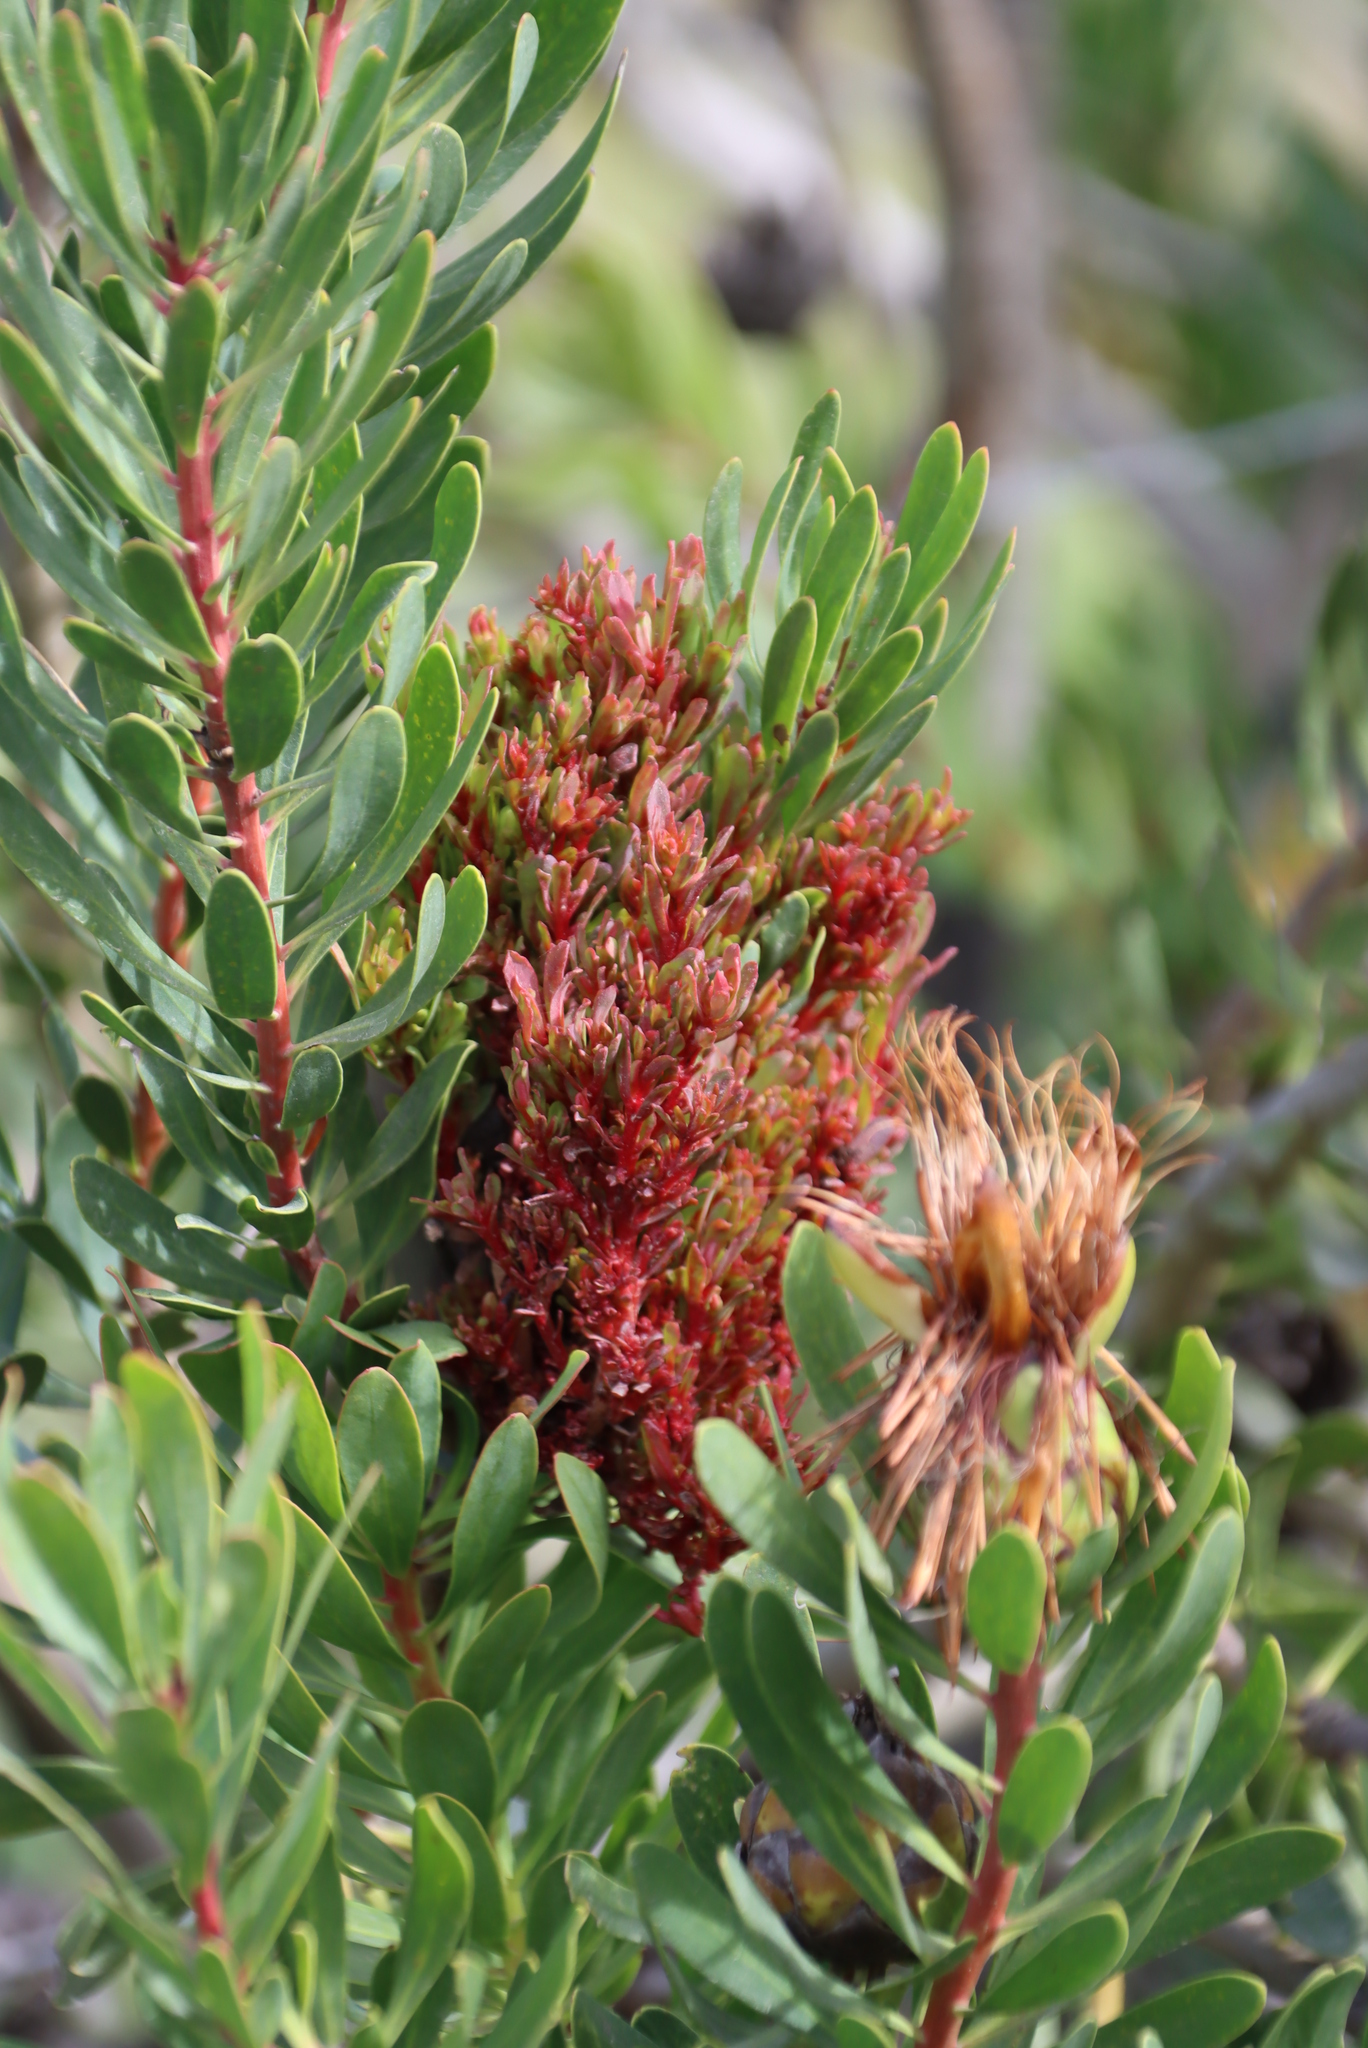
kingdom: Bacteria
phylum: Firmicutes
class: Bacilli
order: Acholeplasmatales
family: Acholeplasmataceae
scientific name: Acholeplasmataceae
